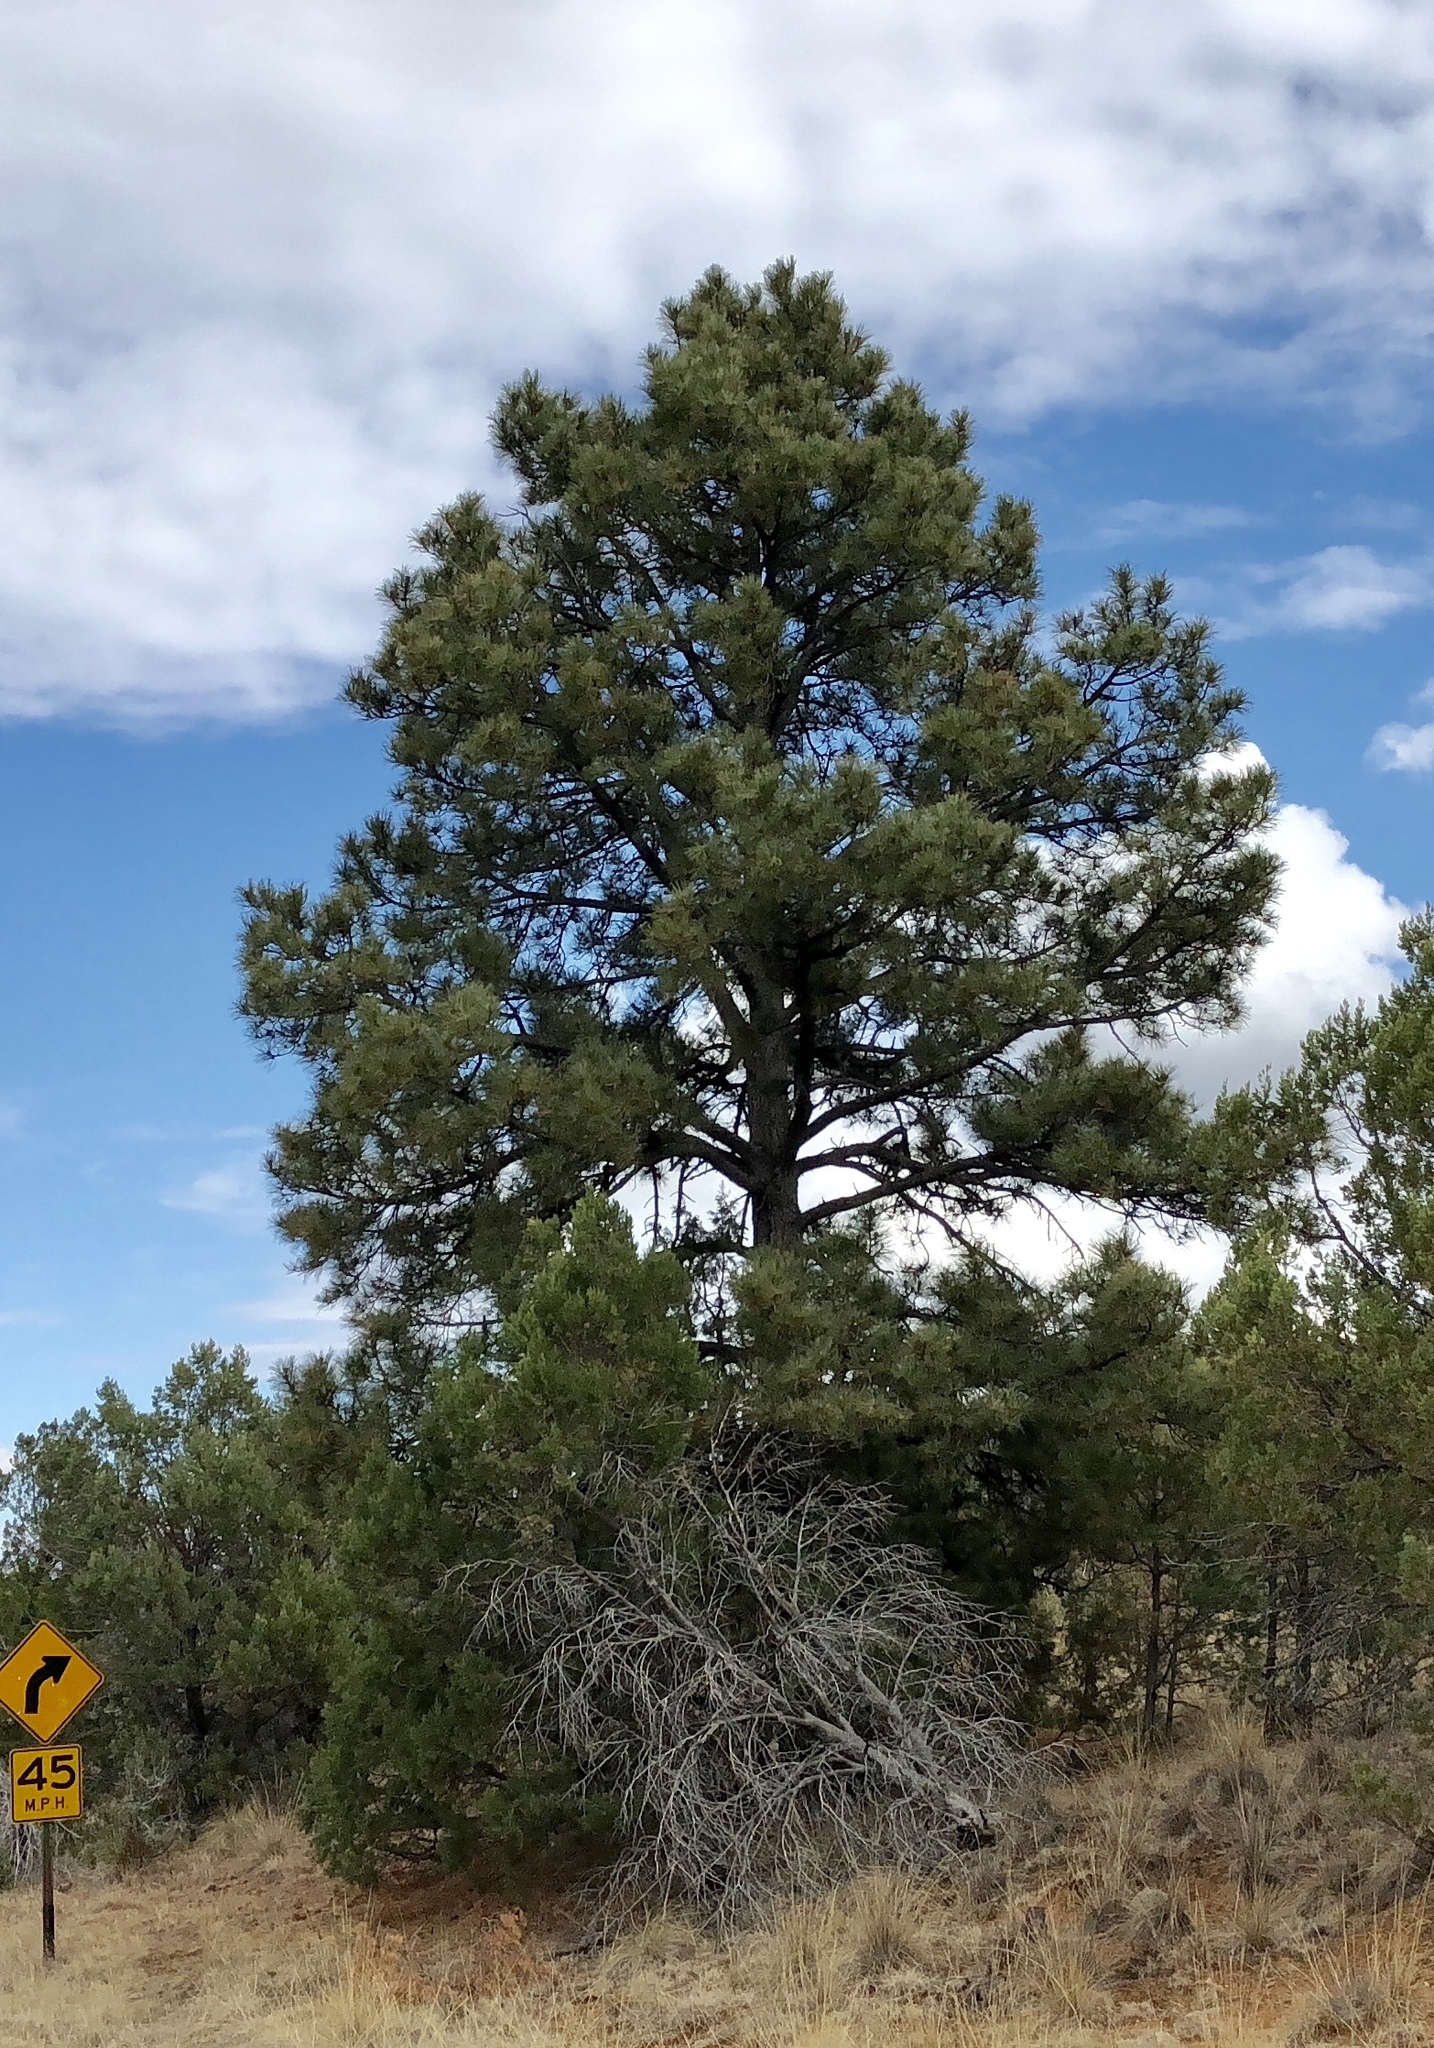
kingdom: Plantae
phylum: Tracheophyta
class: Pinopsida
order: Pinales
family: Pinaceae
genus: Pinus
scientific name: Pinus ponderosa
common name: Western yellow-pine
